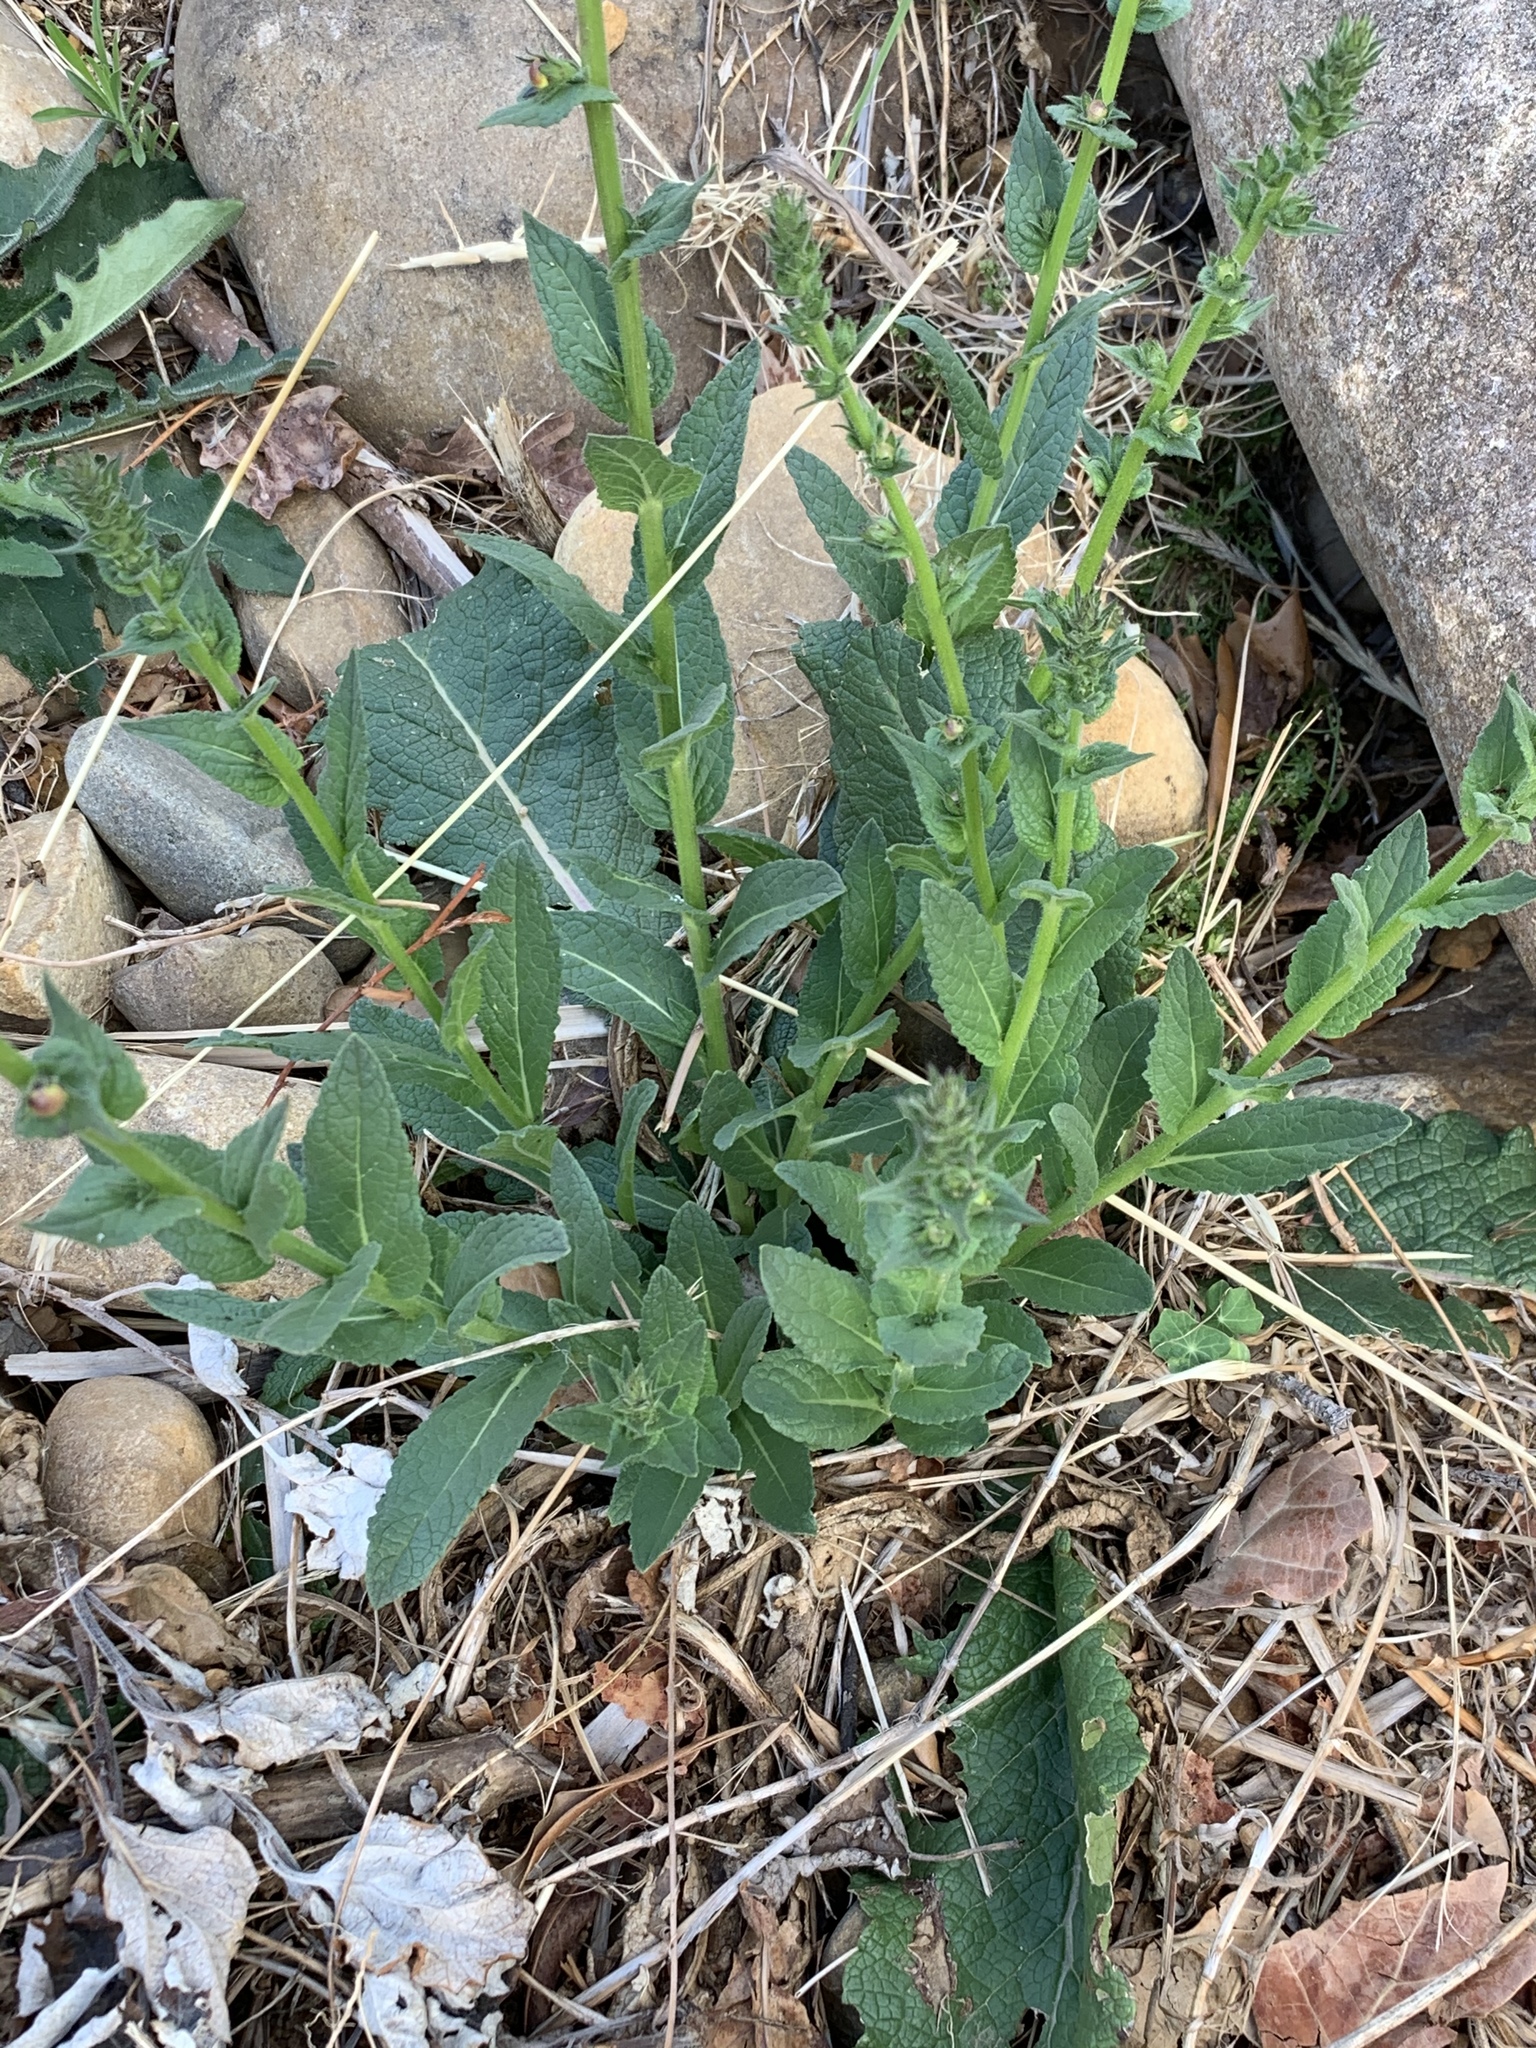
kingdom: Plantae
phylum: Tracheophyta
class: Magnoliopsida
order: Lamiales
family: Scrophulariaceae
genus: Verbascum
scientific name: Verbascum virgatum
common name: Twiggy mullein
